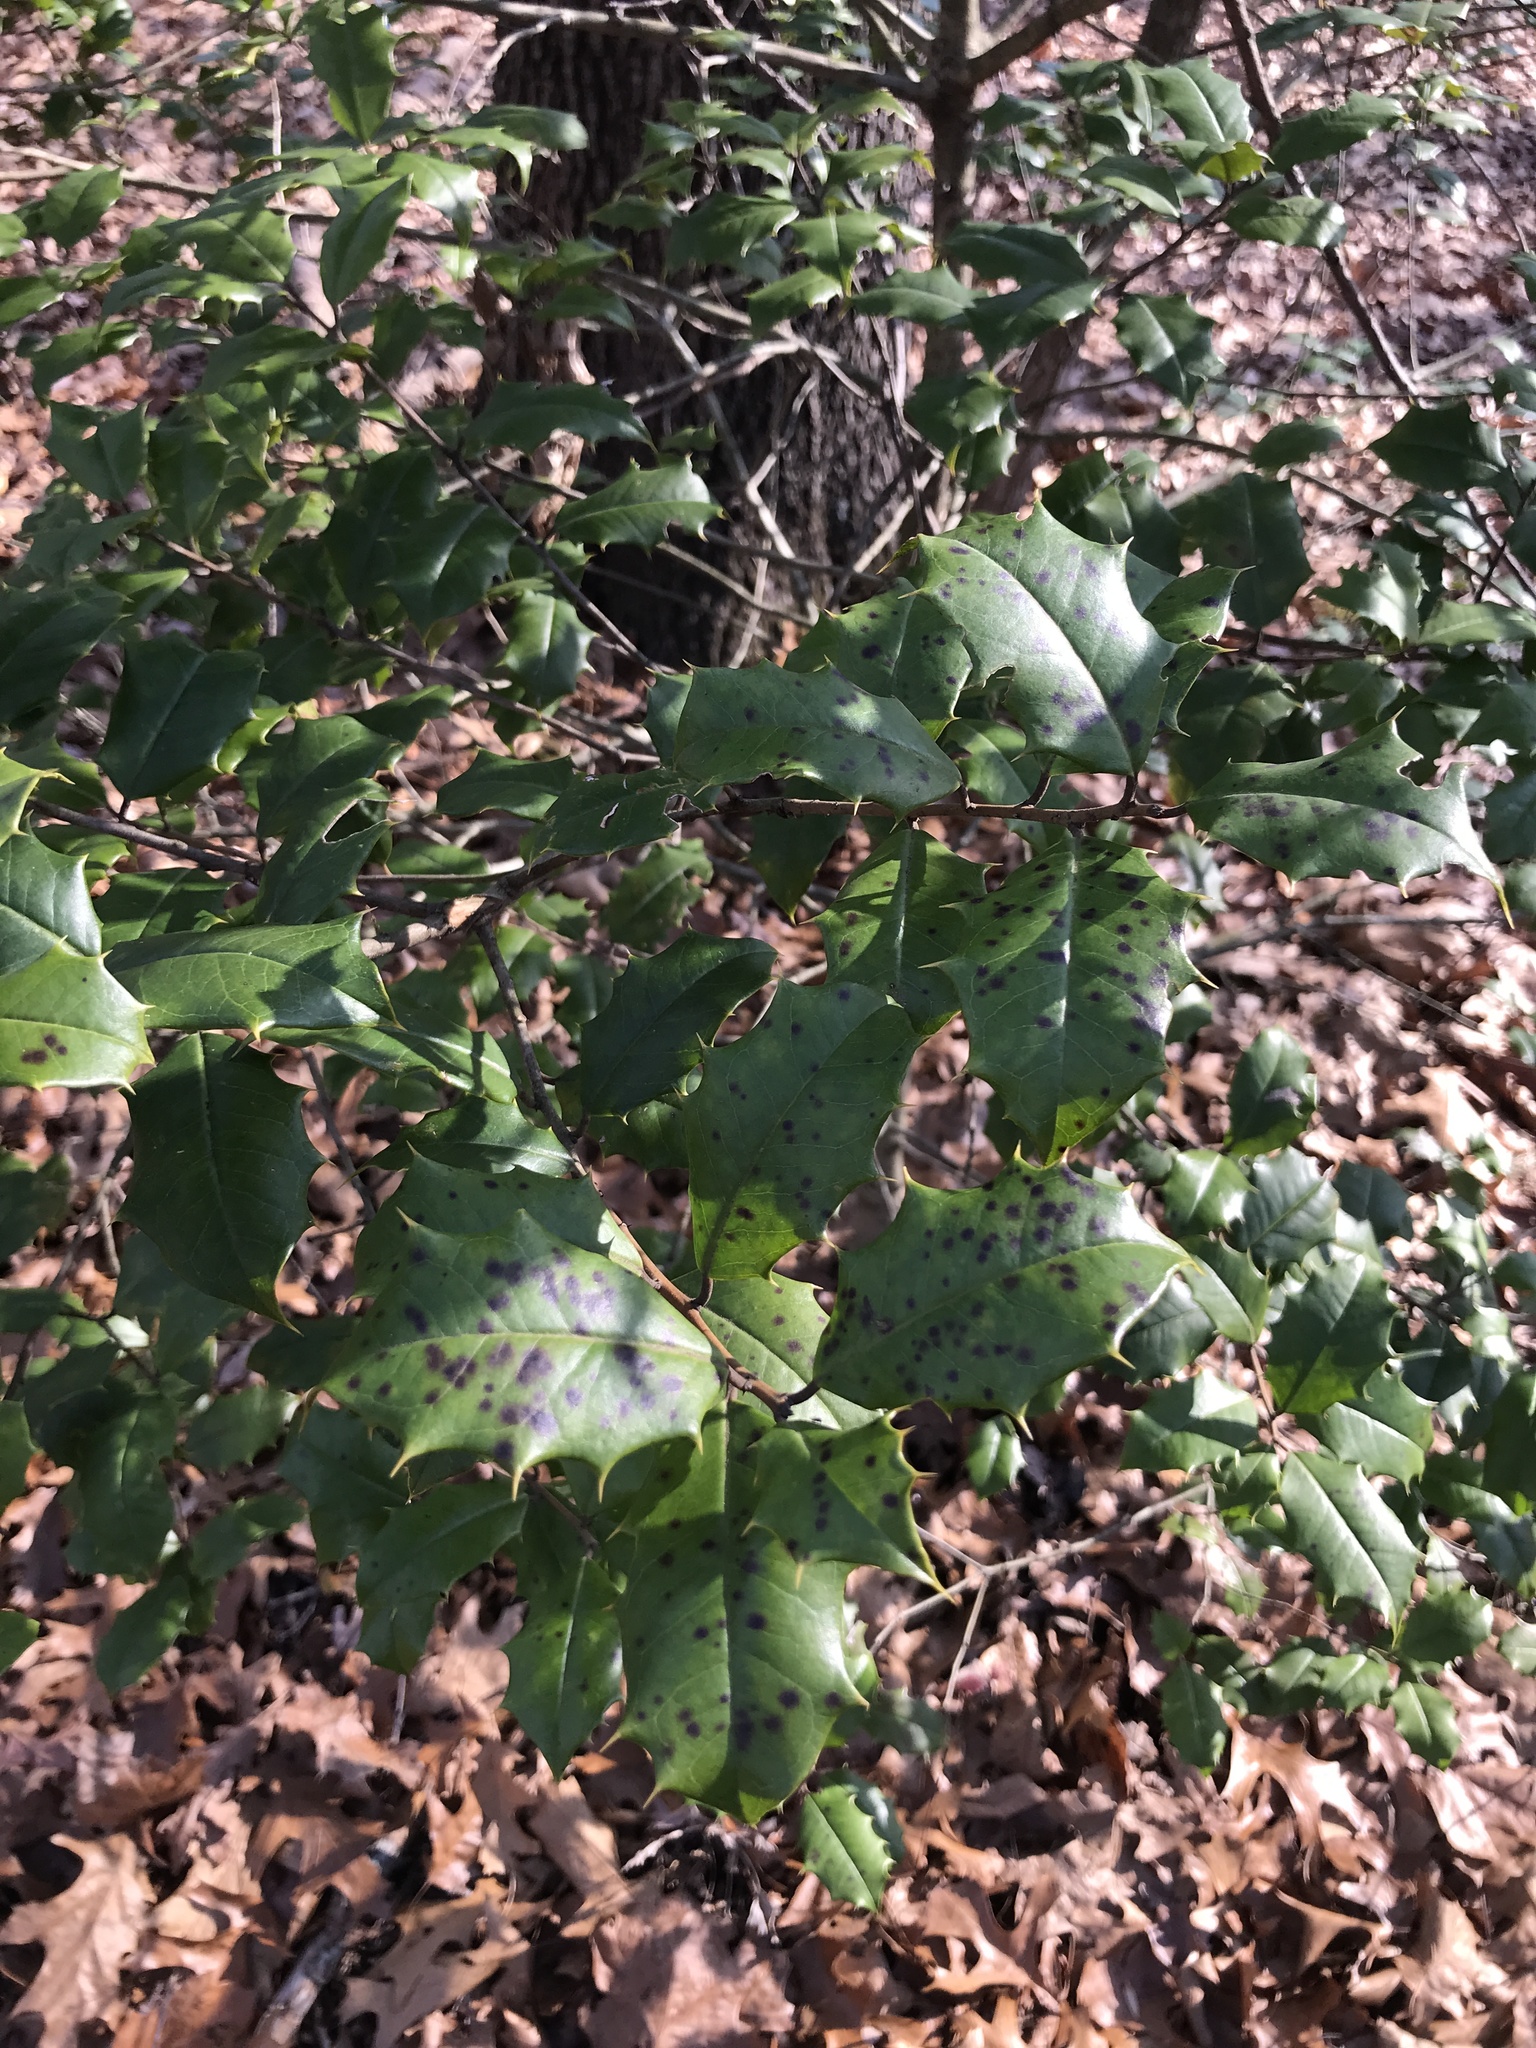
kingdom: Plantae
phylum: Tracheophyta
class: Magnoliopsida
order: Aquifoliales
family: Aquifoliaceae
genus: Ilex
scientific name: Ilex opaca
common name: American holly
